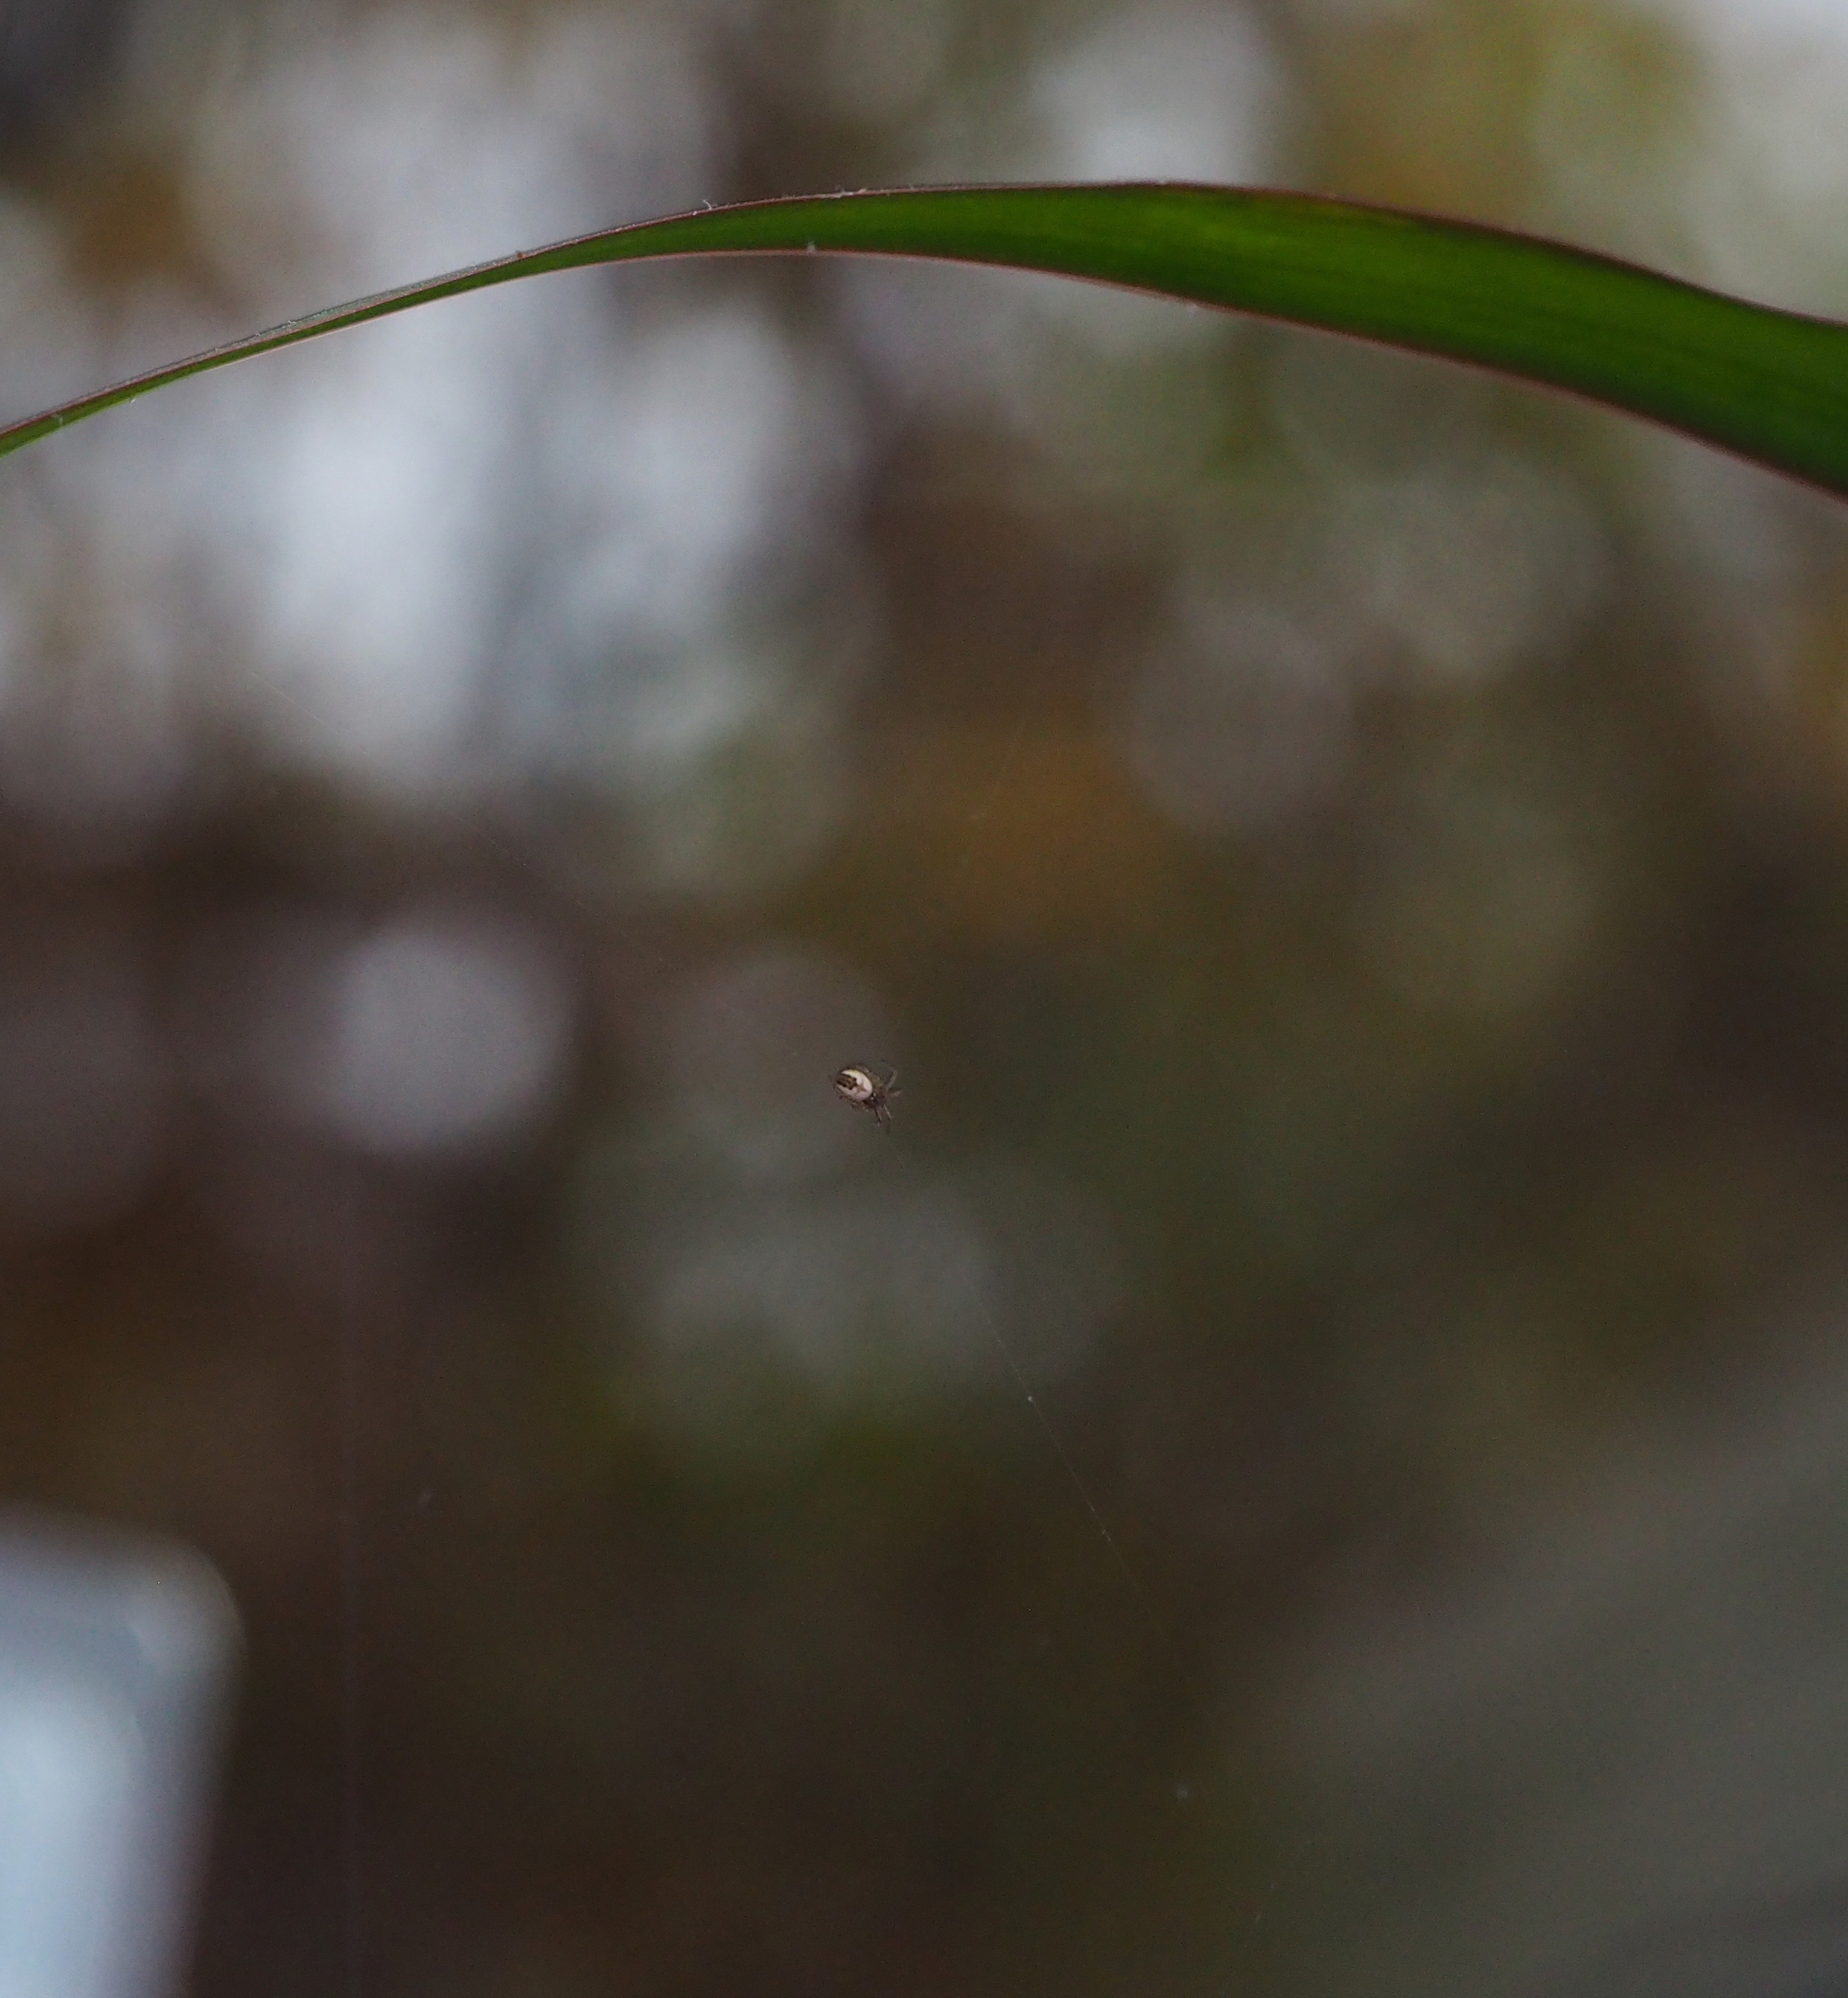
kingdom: Animalia
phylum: Arthropoda
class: Arachnida
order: Araneae
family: Araneidae
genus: Mangora
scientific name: Mangora acalypha
